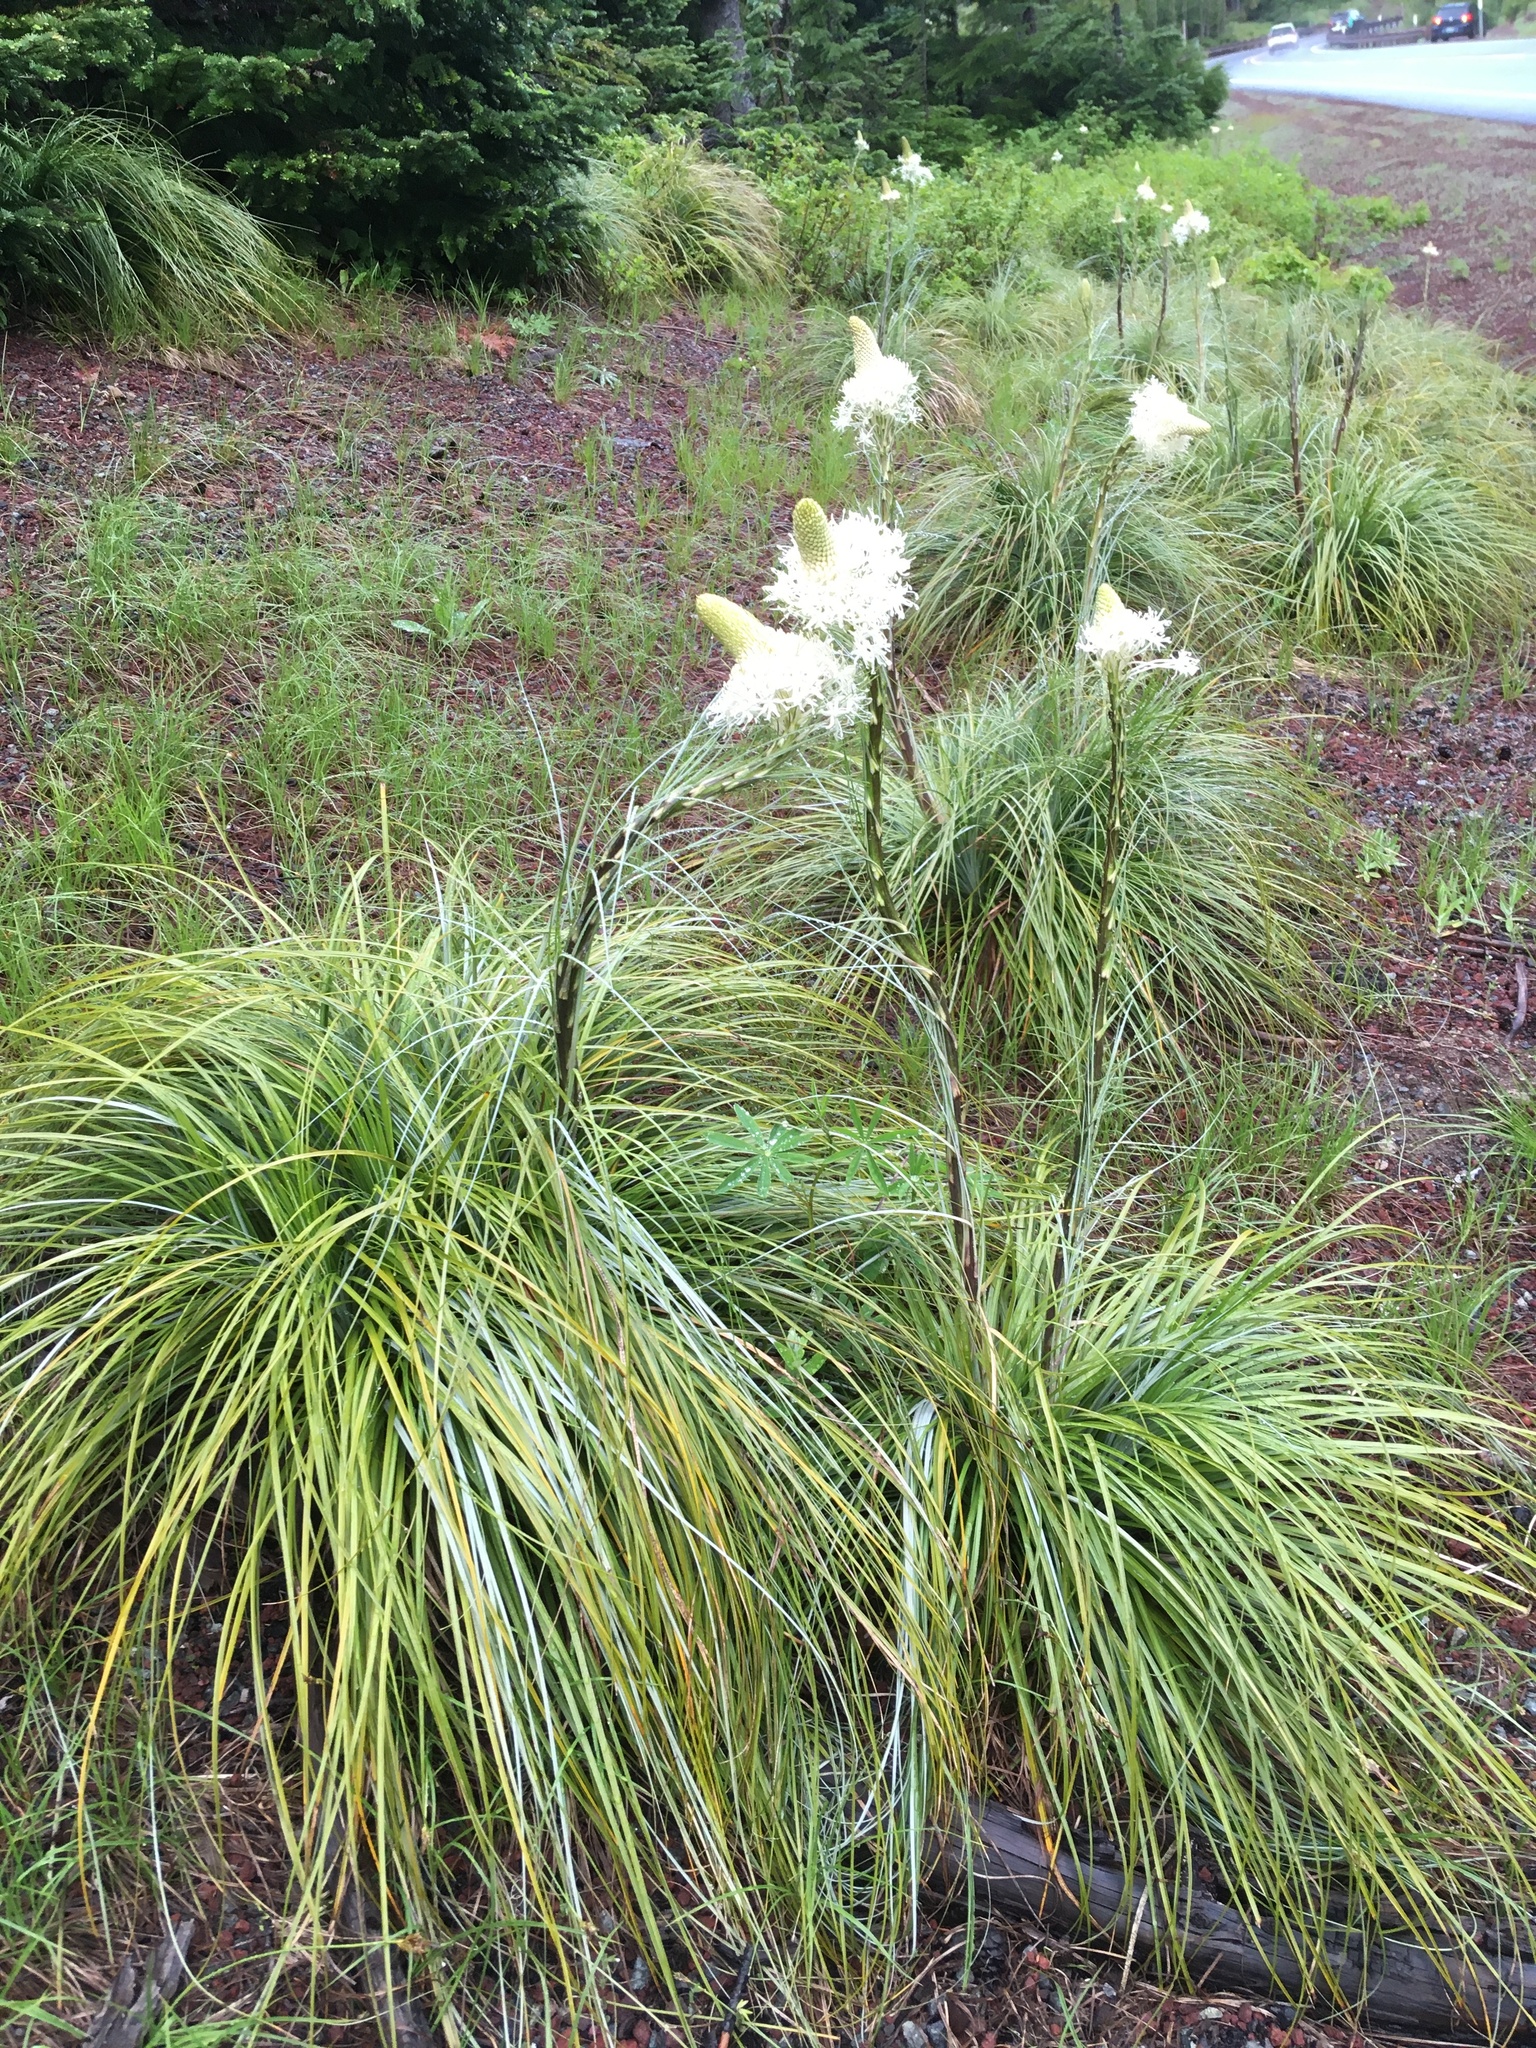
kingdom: Plantae
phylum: Tracheophyta
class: Liliopsida
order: Liliales
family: Melanthiaceae
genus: Xerophyllum
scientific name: Xerophyllum tenax
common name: Bear-grass
